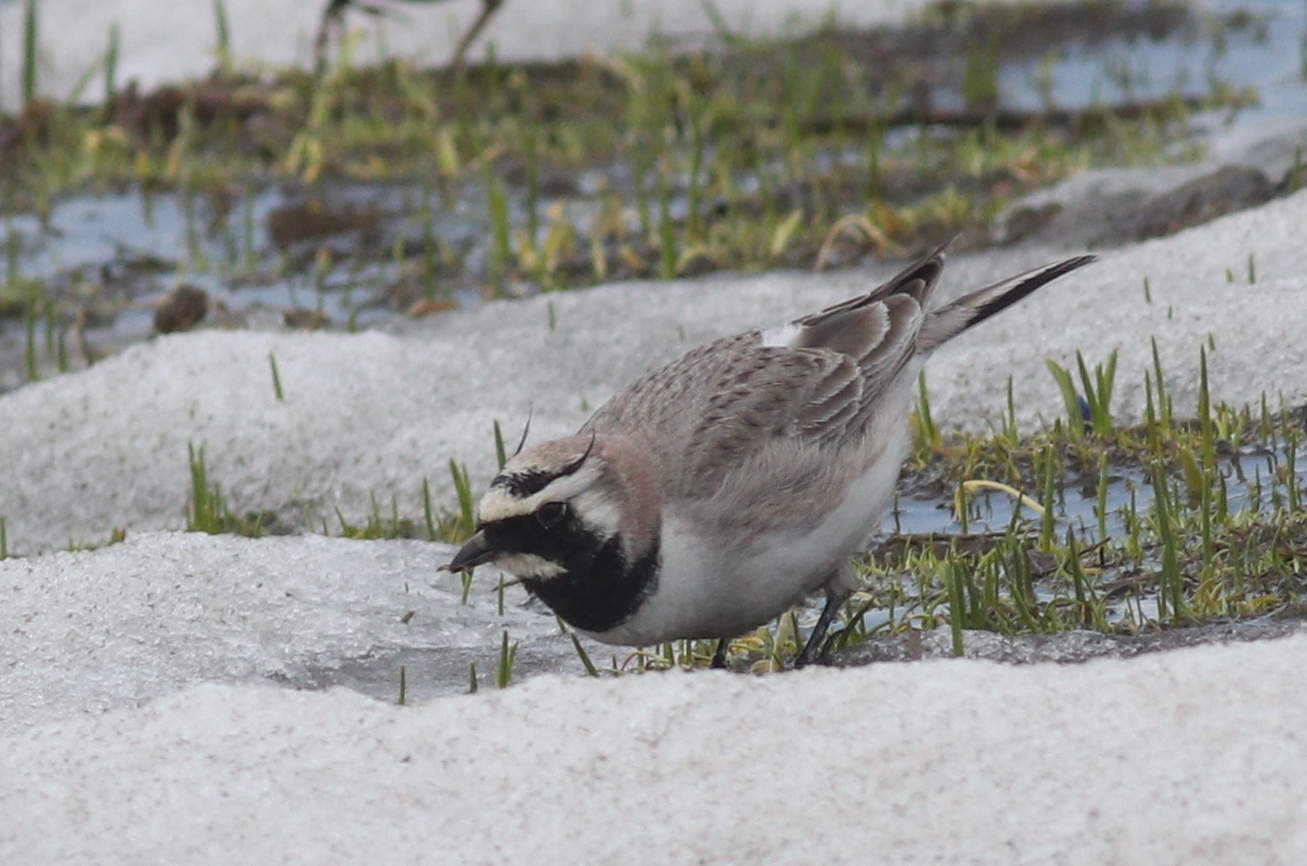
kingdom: Animalia
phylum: Chordata
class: Aves
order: Passeriformes
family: Alaudidae
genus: Eremophila
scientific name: Eremophila alpestris
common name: Horned lark
